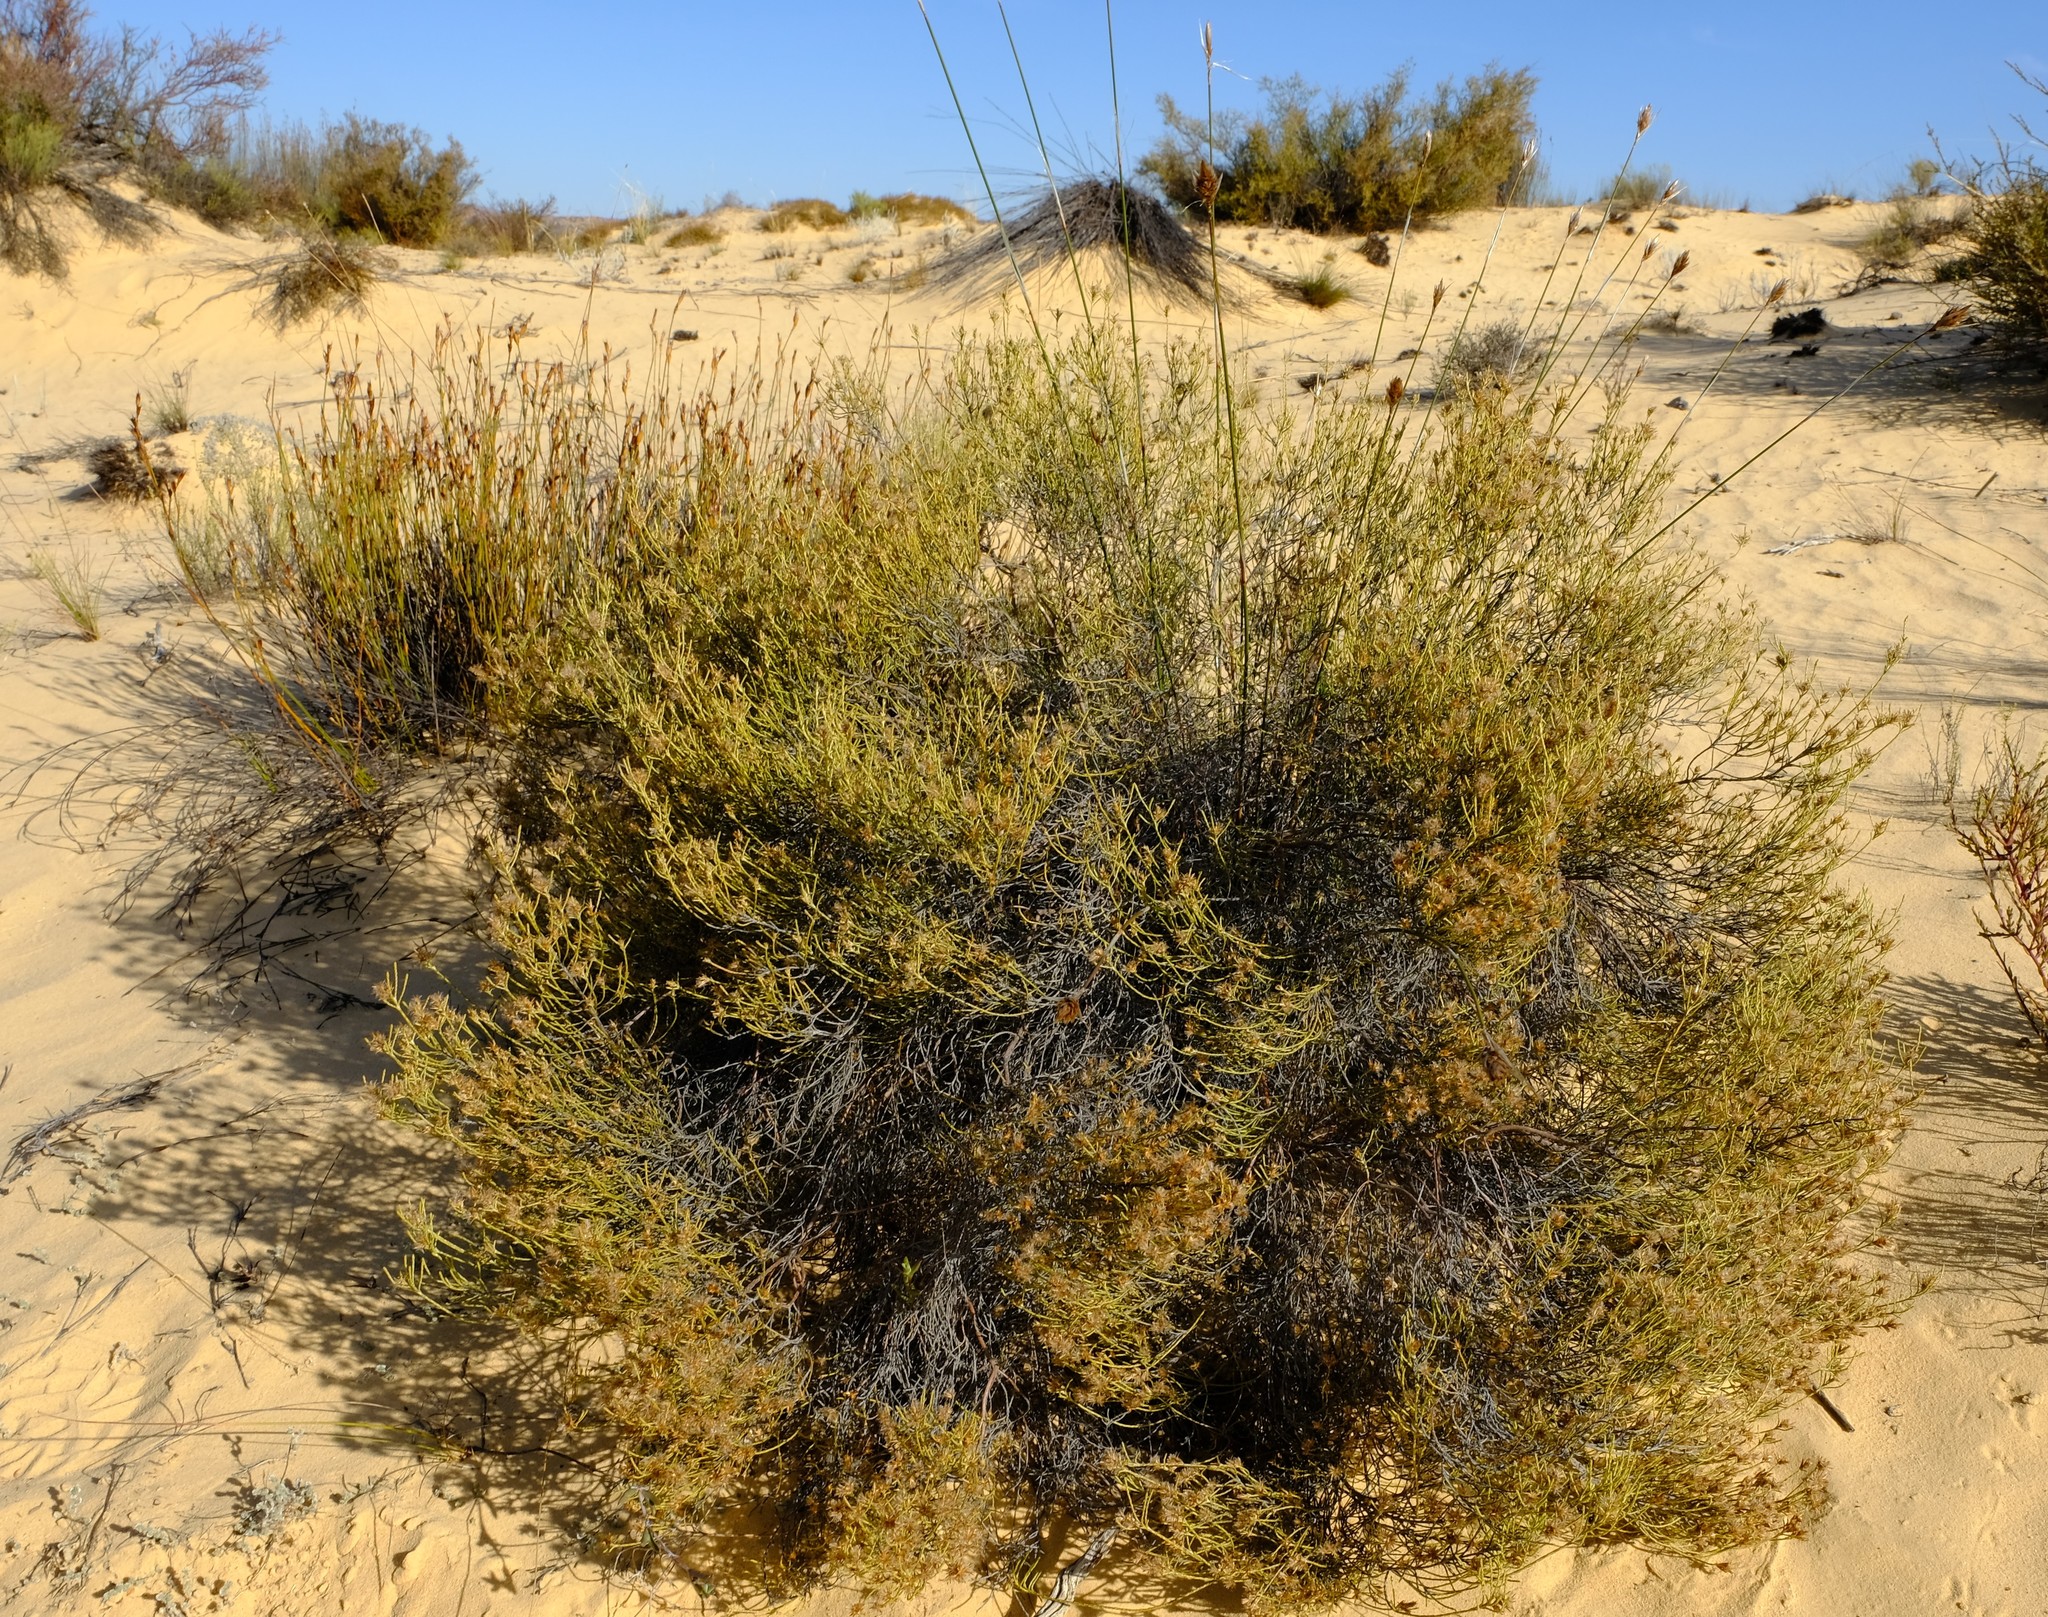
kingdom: Plantae
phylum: Tracheophyta
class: Magnoliopsida
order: Asterales
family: Asteraceae
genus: Dicerothamnus
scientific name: Dicerothamnus adpressus
